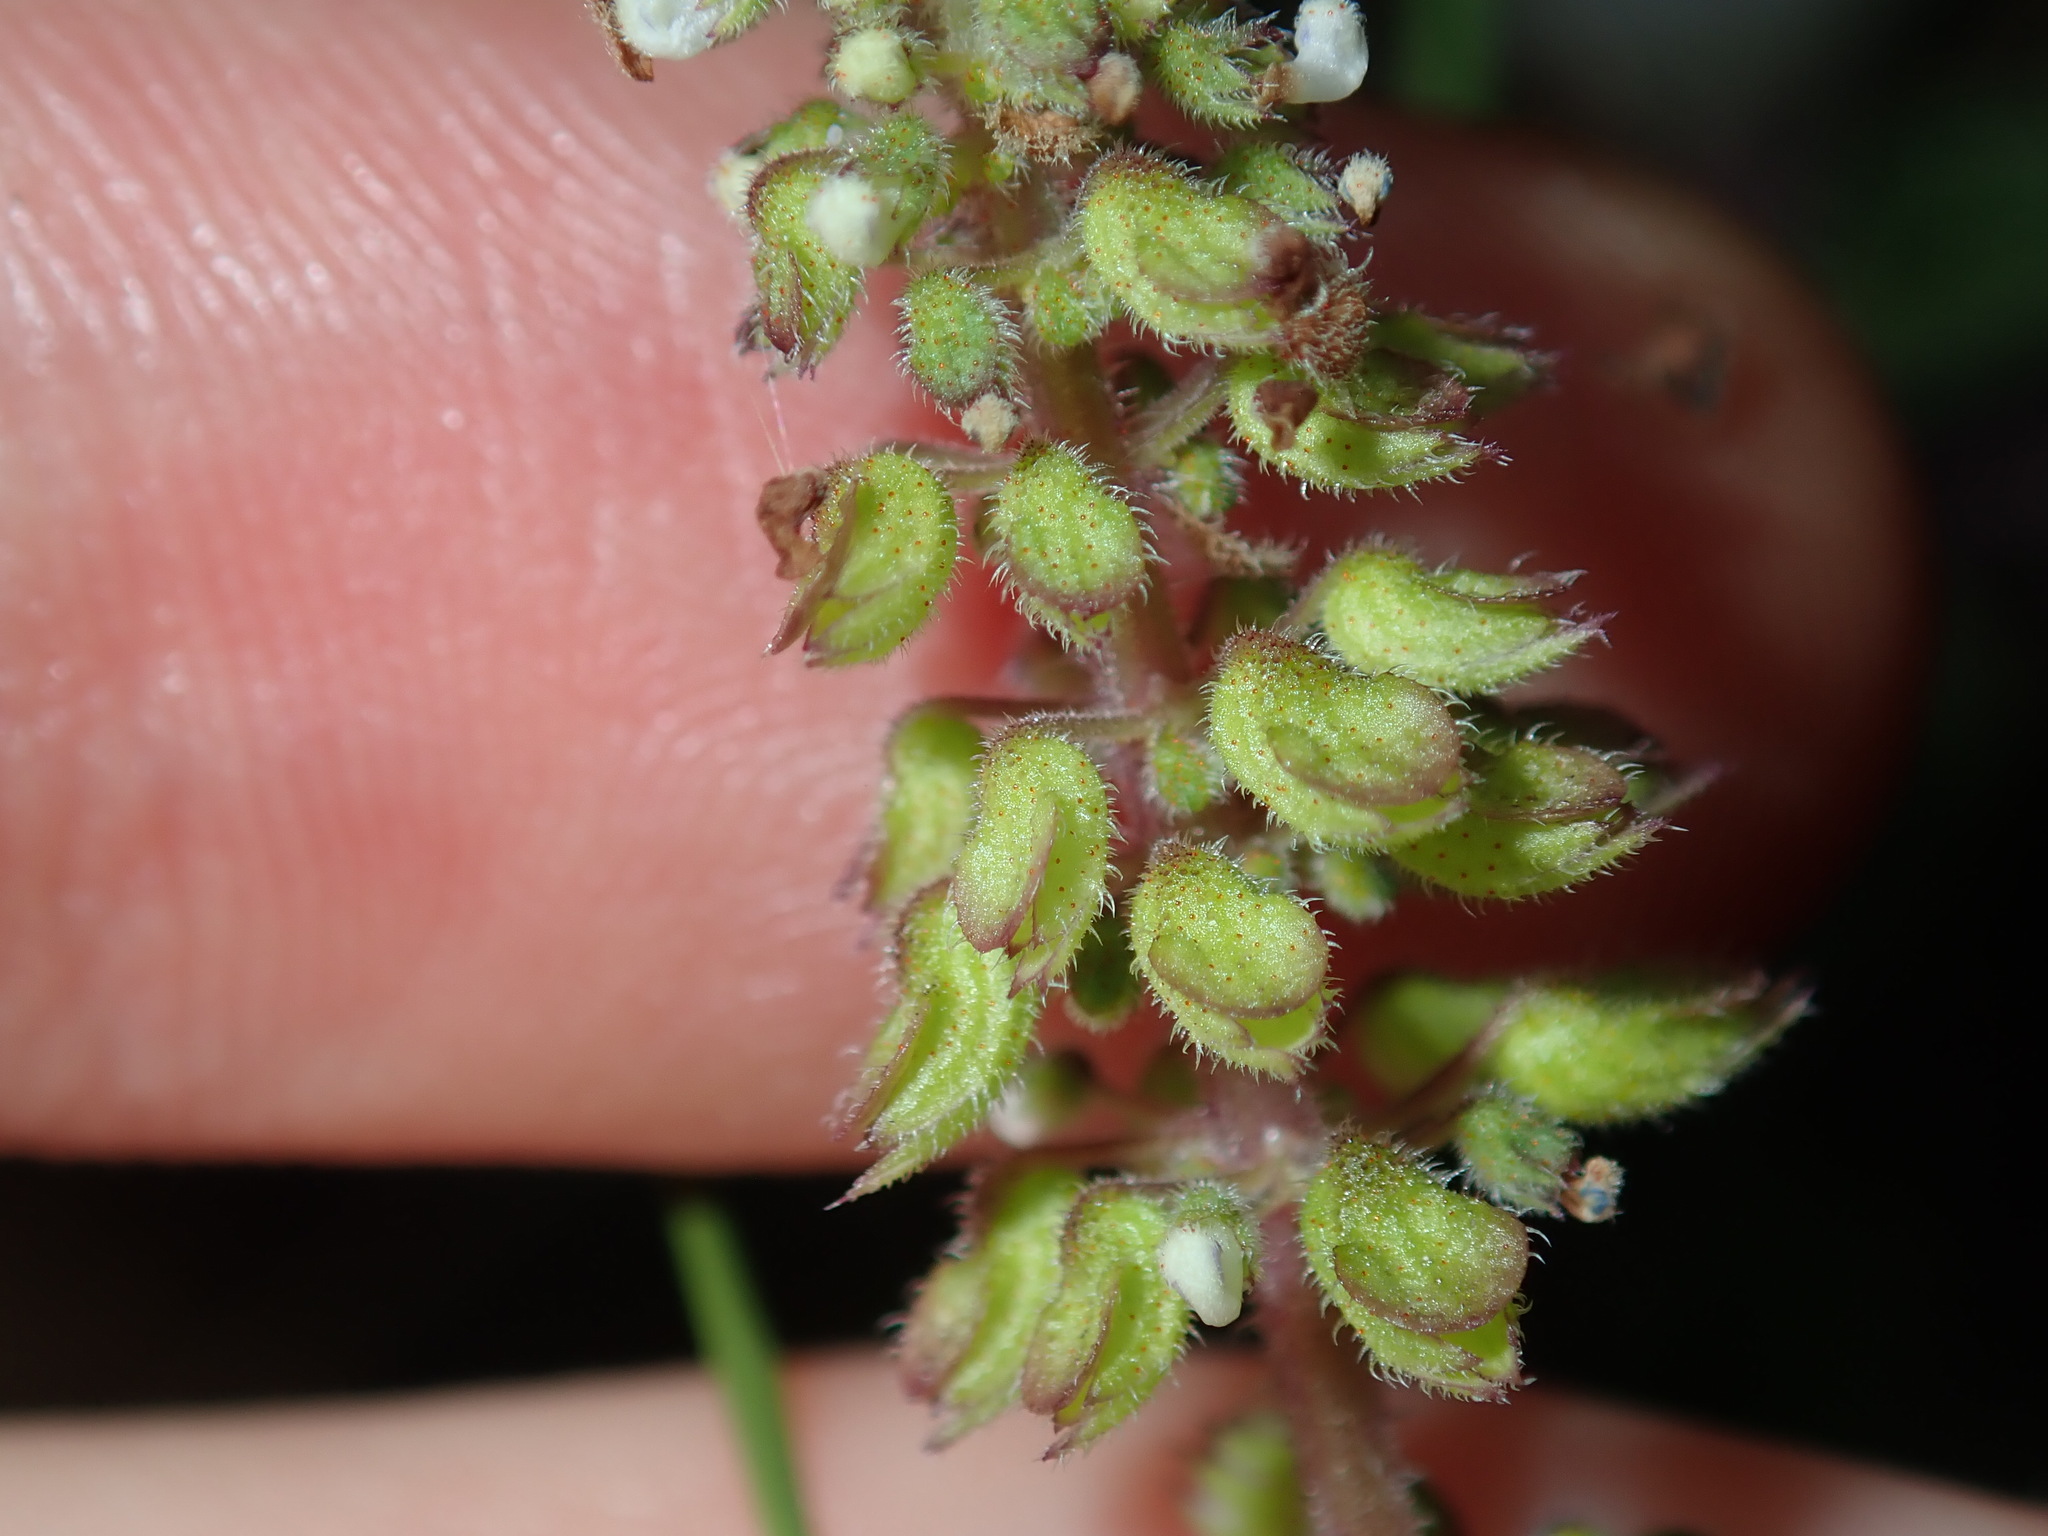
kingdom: Plantae
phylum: Tracheophyta
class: Magnoliopsida
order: Lamiales
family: Lamiaceae
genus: Coleus
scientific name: Coleus australis
